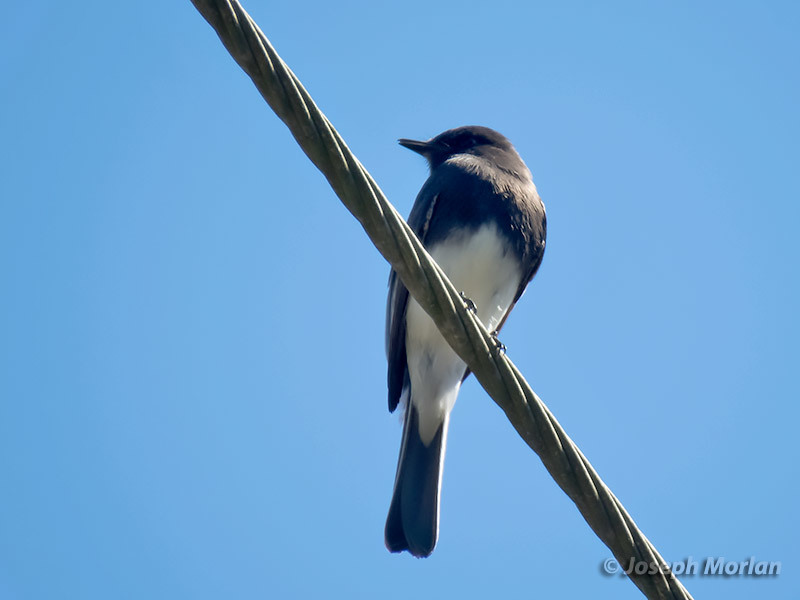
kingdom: Animalia
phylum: Chordata
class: Aves
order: Passeriformes
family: Tyrannidae
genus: Sayornis
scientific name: Sayornis nigricans
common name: Black phoebe
